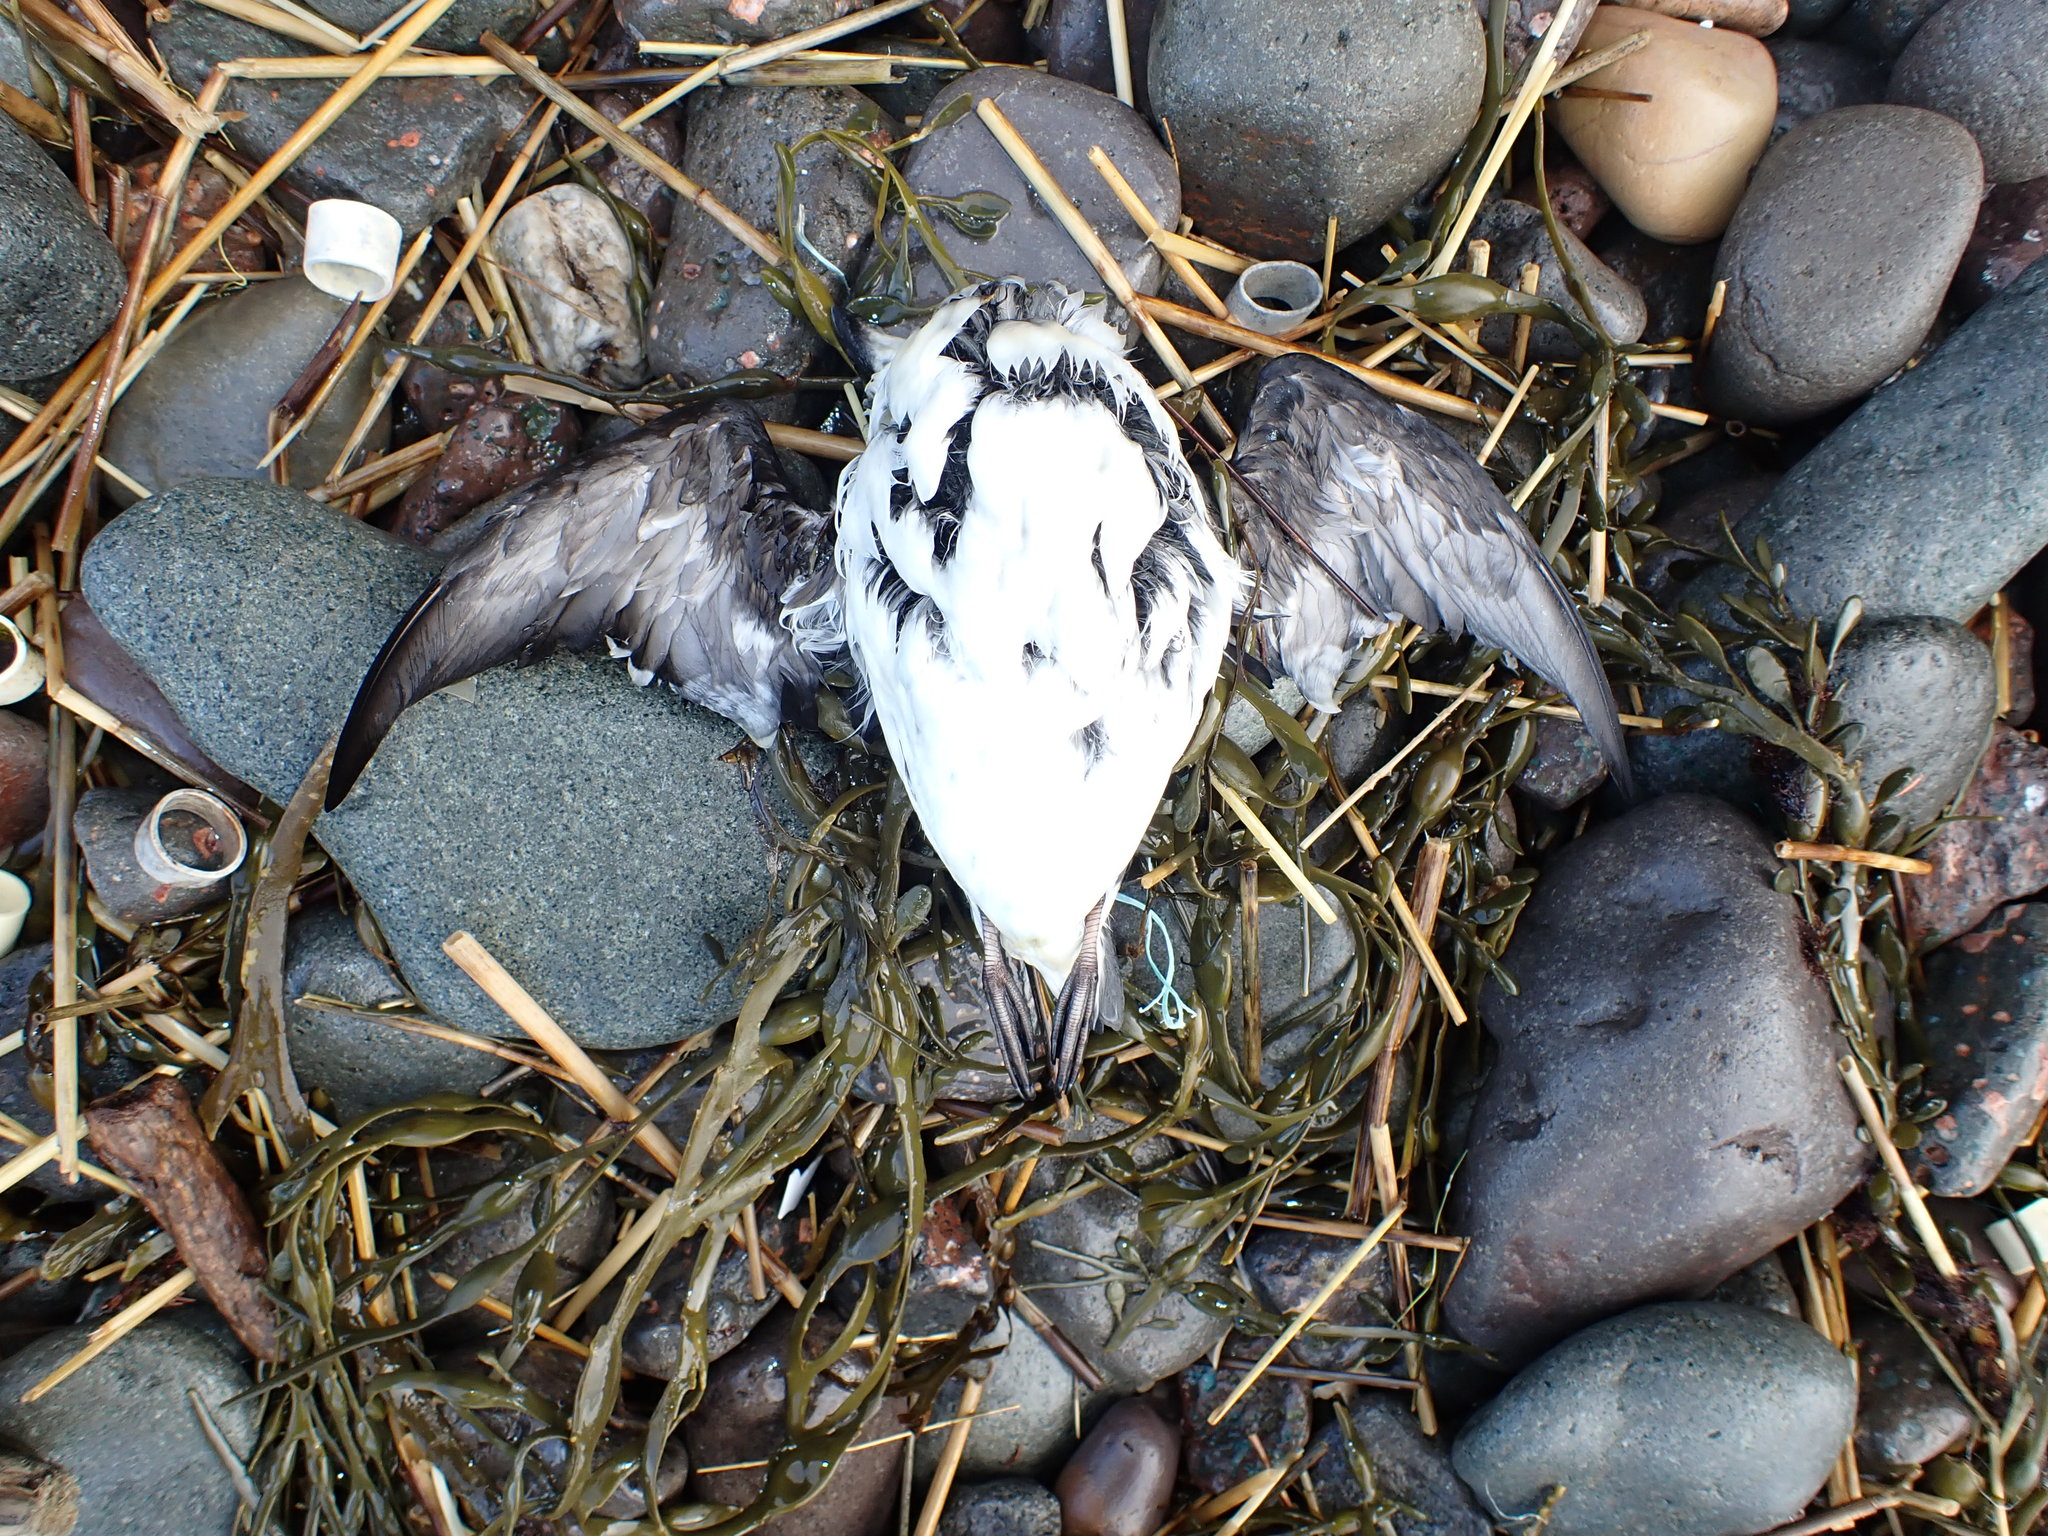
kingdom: Animalia
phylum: Chordata
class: Aves
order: Charadriiformes
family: Alcidae
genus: Alle
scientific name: Alle alle
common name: Little auk
